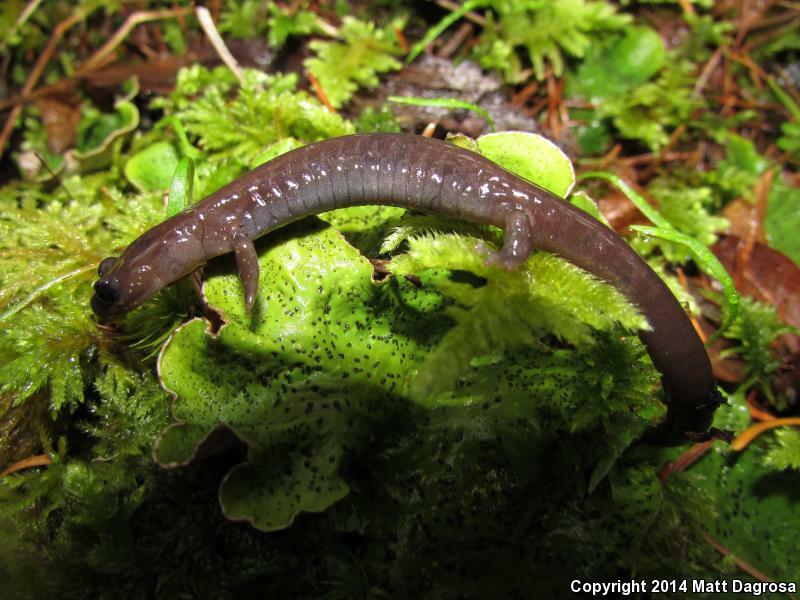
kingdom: Animalia
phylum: Chordata
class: Amphibia
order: Caudata
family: Plethodontidae
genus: Plethodon
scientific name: Plethodon stormi
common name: Siskiyou mountains salamander
